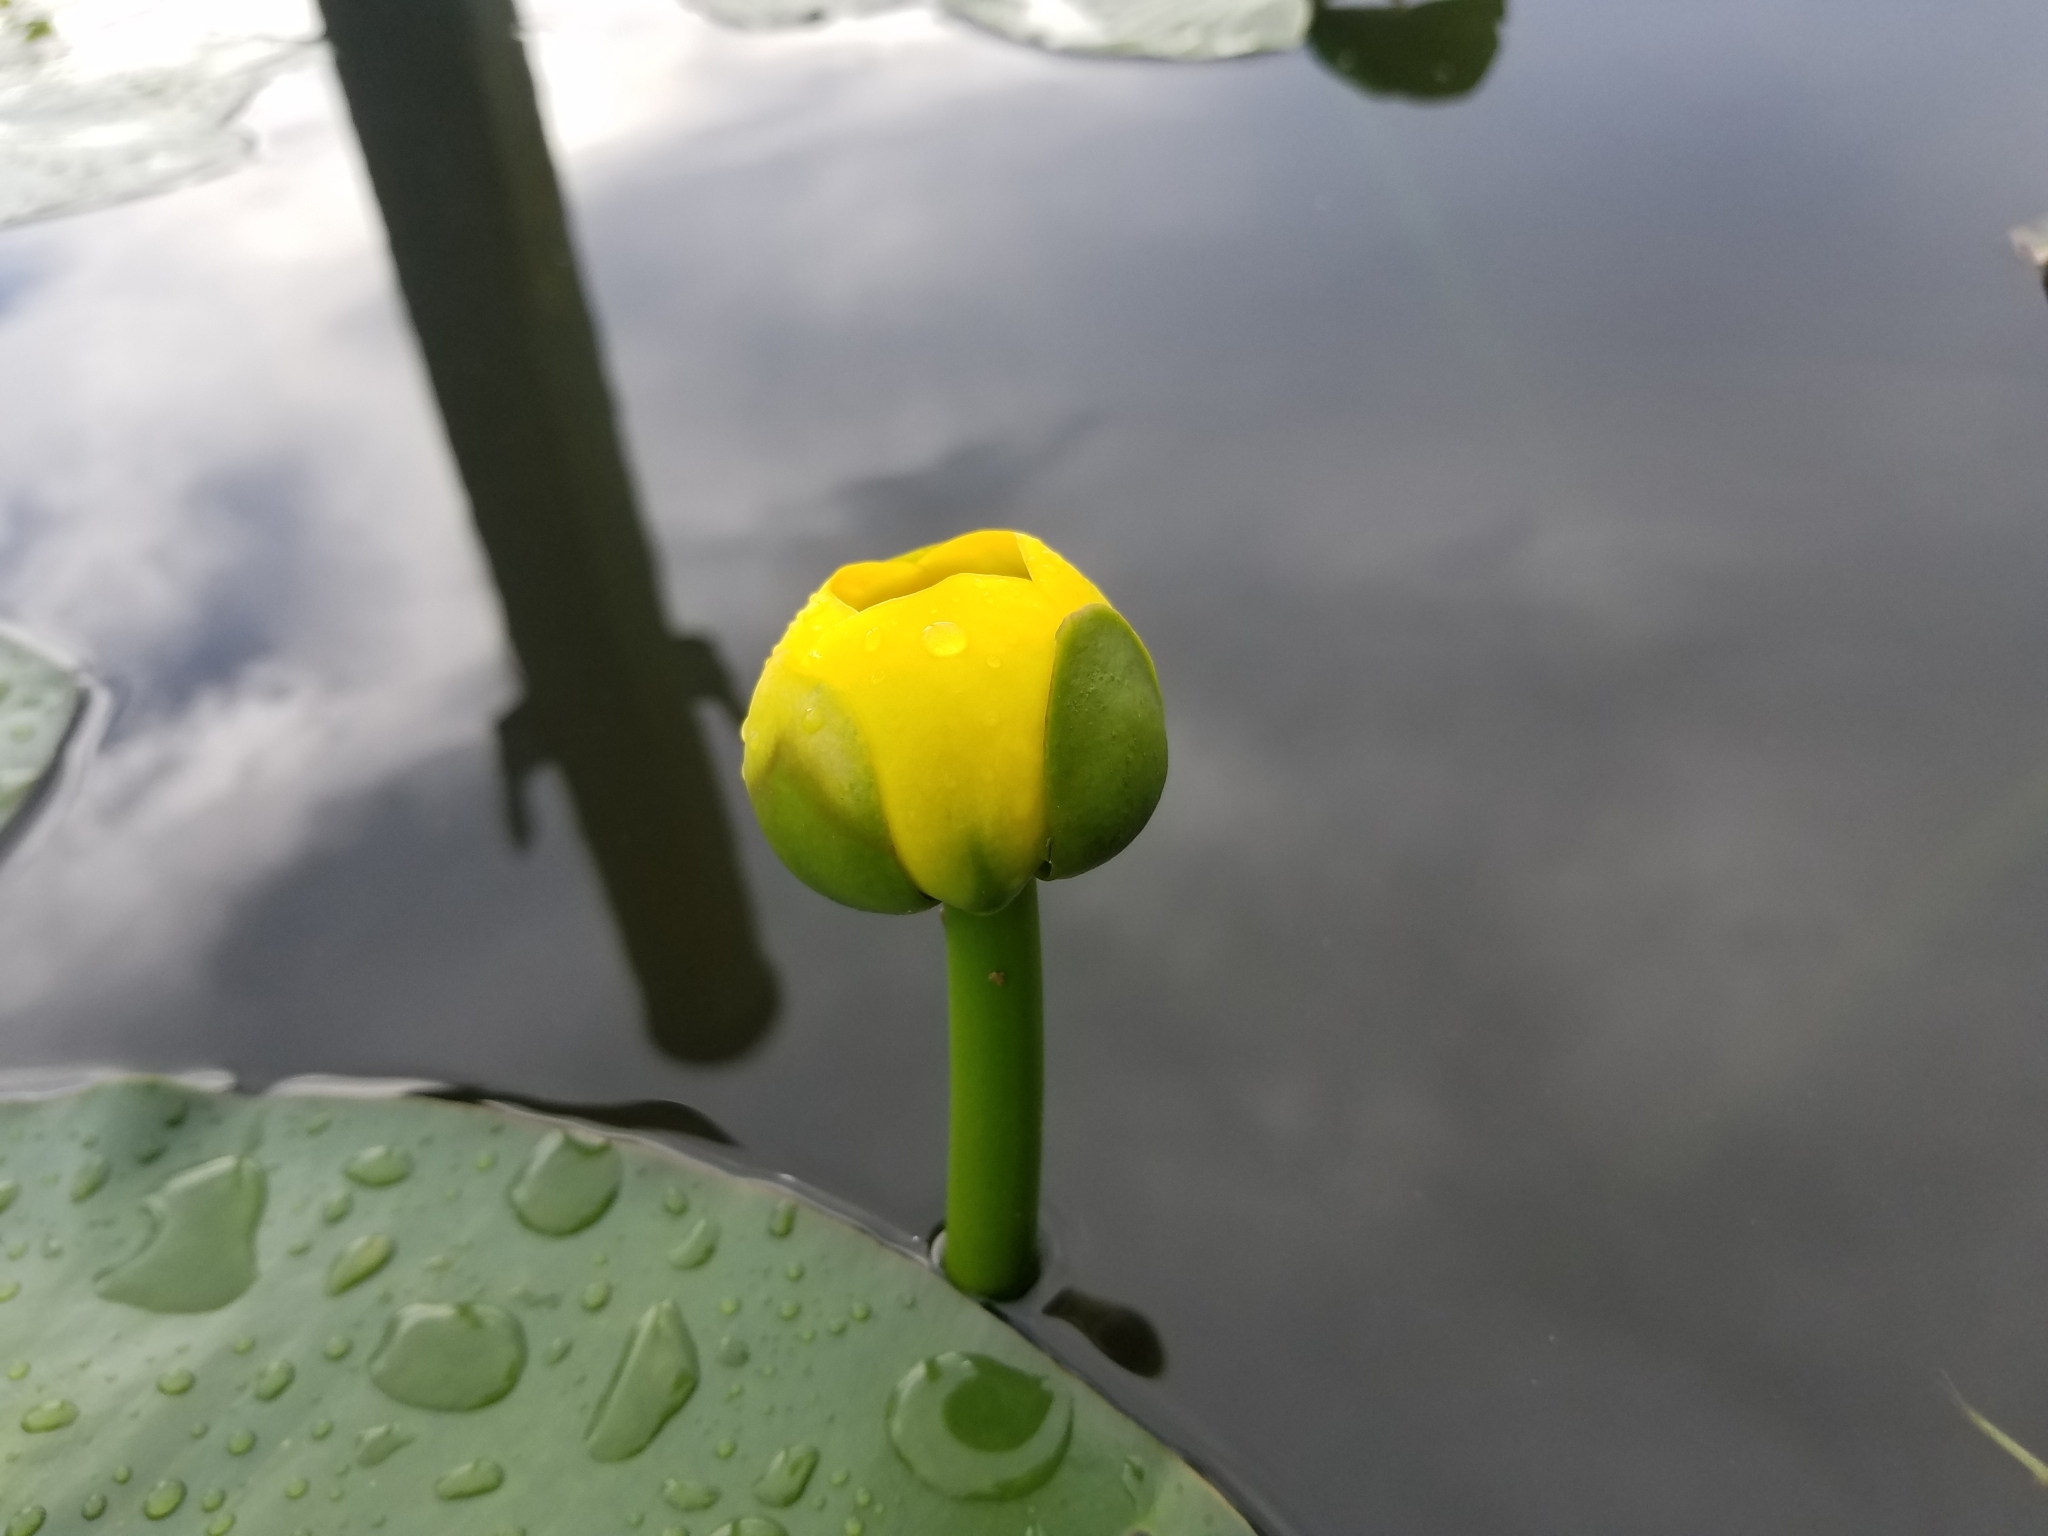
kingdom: Plantae
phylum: Tracheophyta
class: Magnoliopsida
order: Nymphaeales
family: Nymphaeaceae
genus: Nuphar
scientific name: Nuphar advena
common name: Spatter-dock
